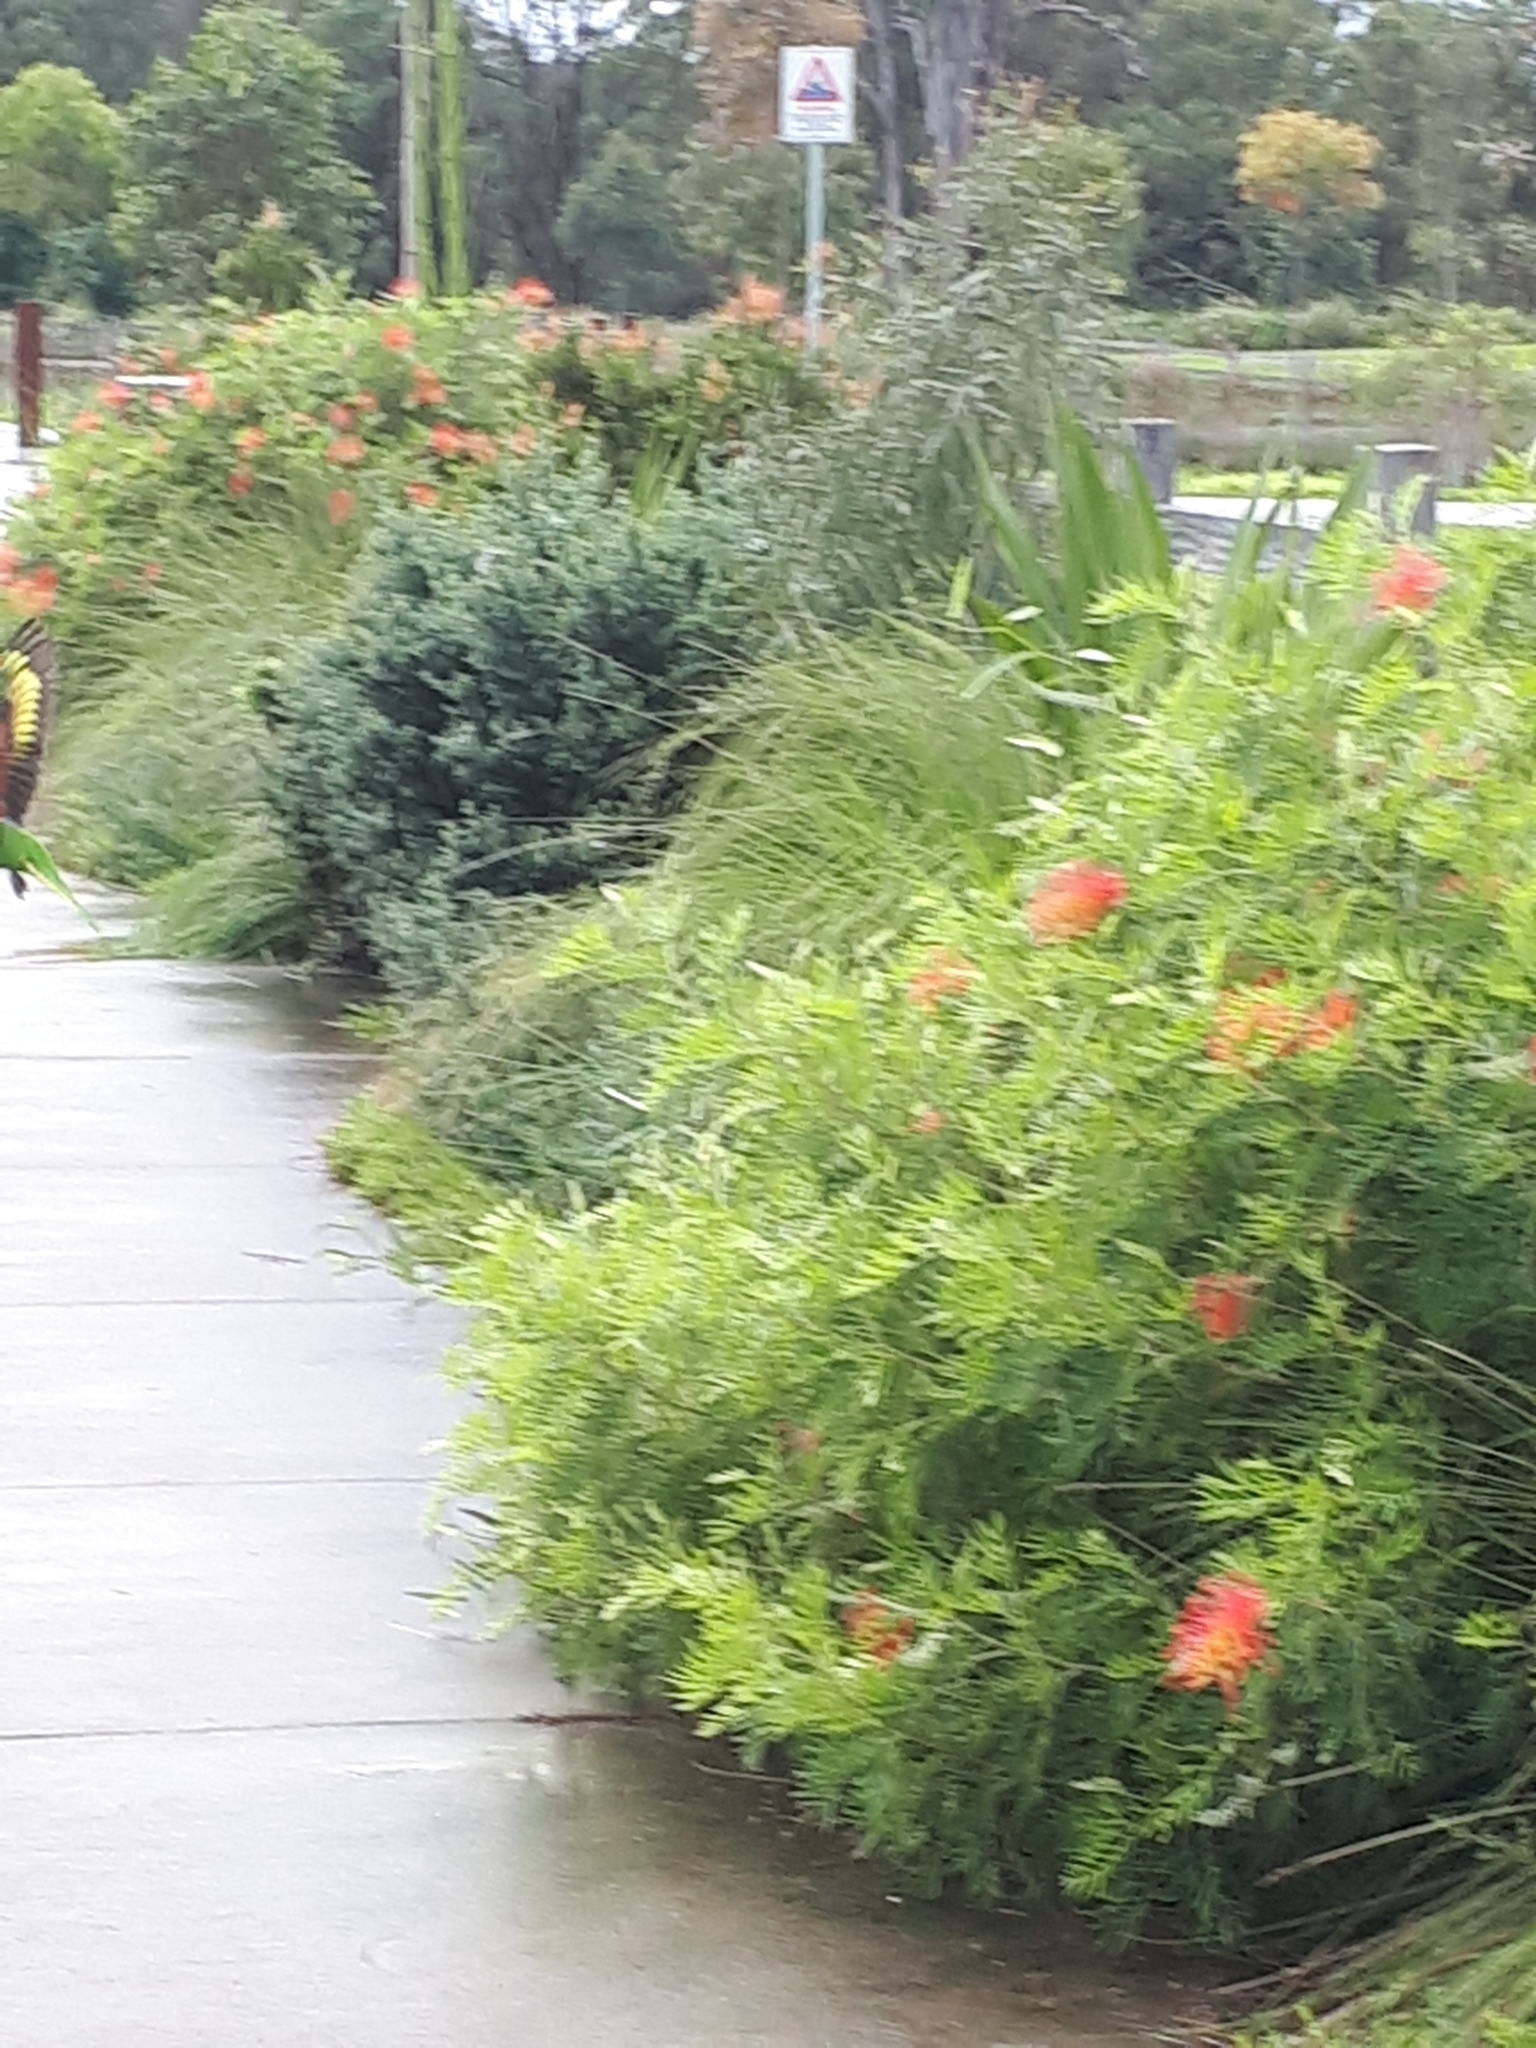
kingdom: Animalia
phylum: Chordata
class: Aves
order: Psittaciformes
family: Psittacidae
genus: Trichoglossus
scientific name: Trichoglossus haematodus
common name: Coconut lorikeet
